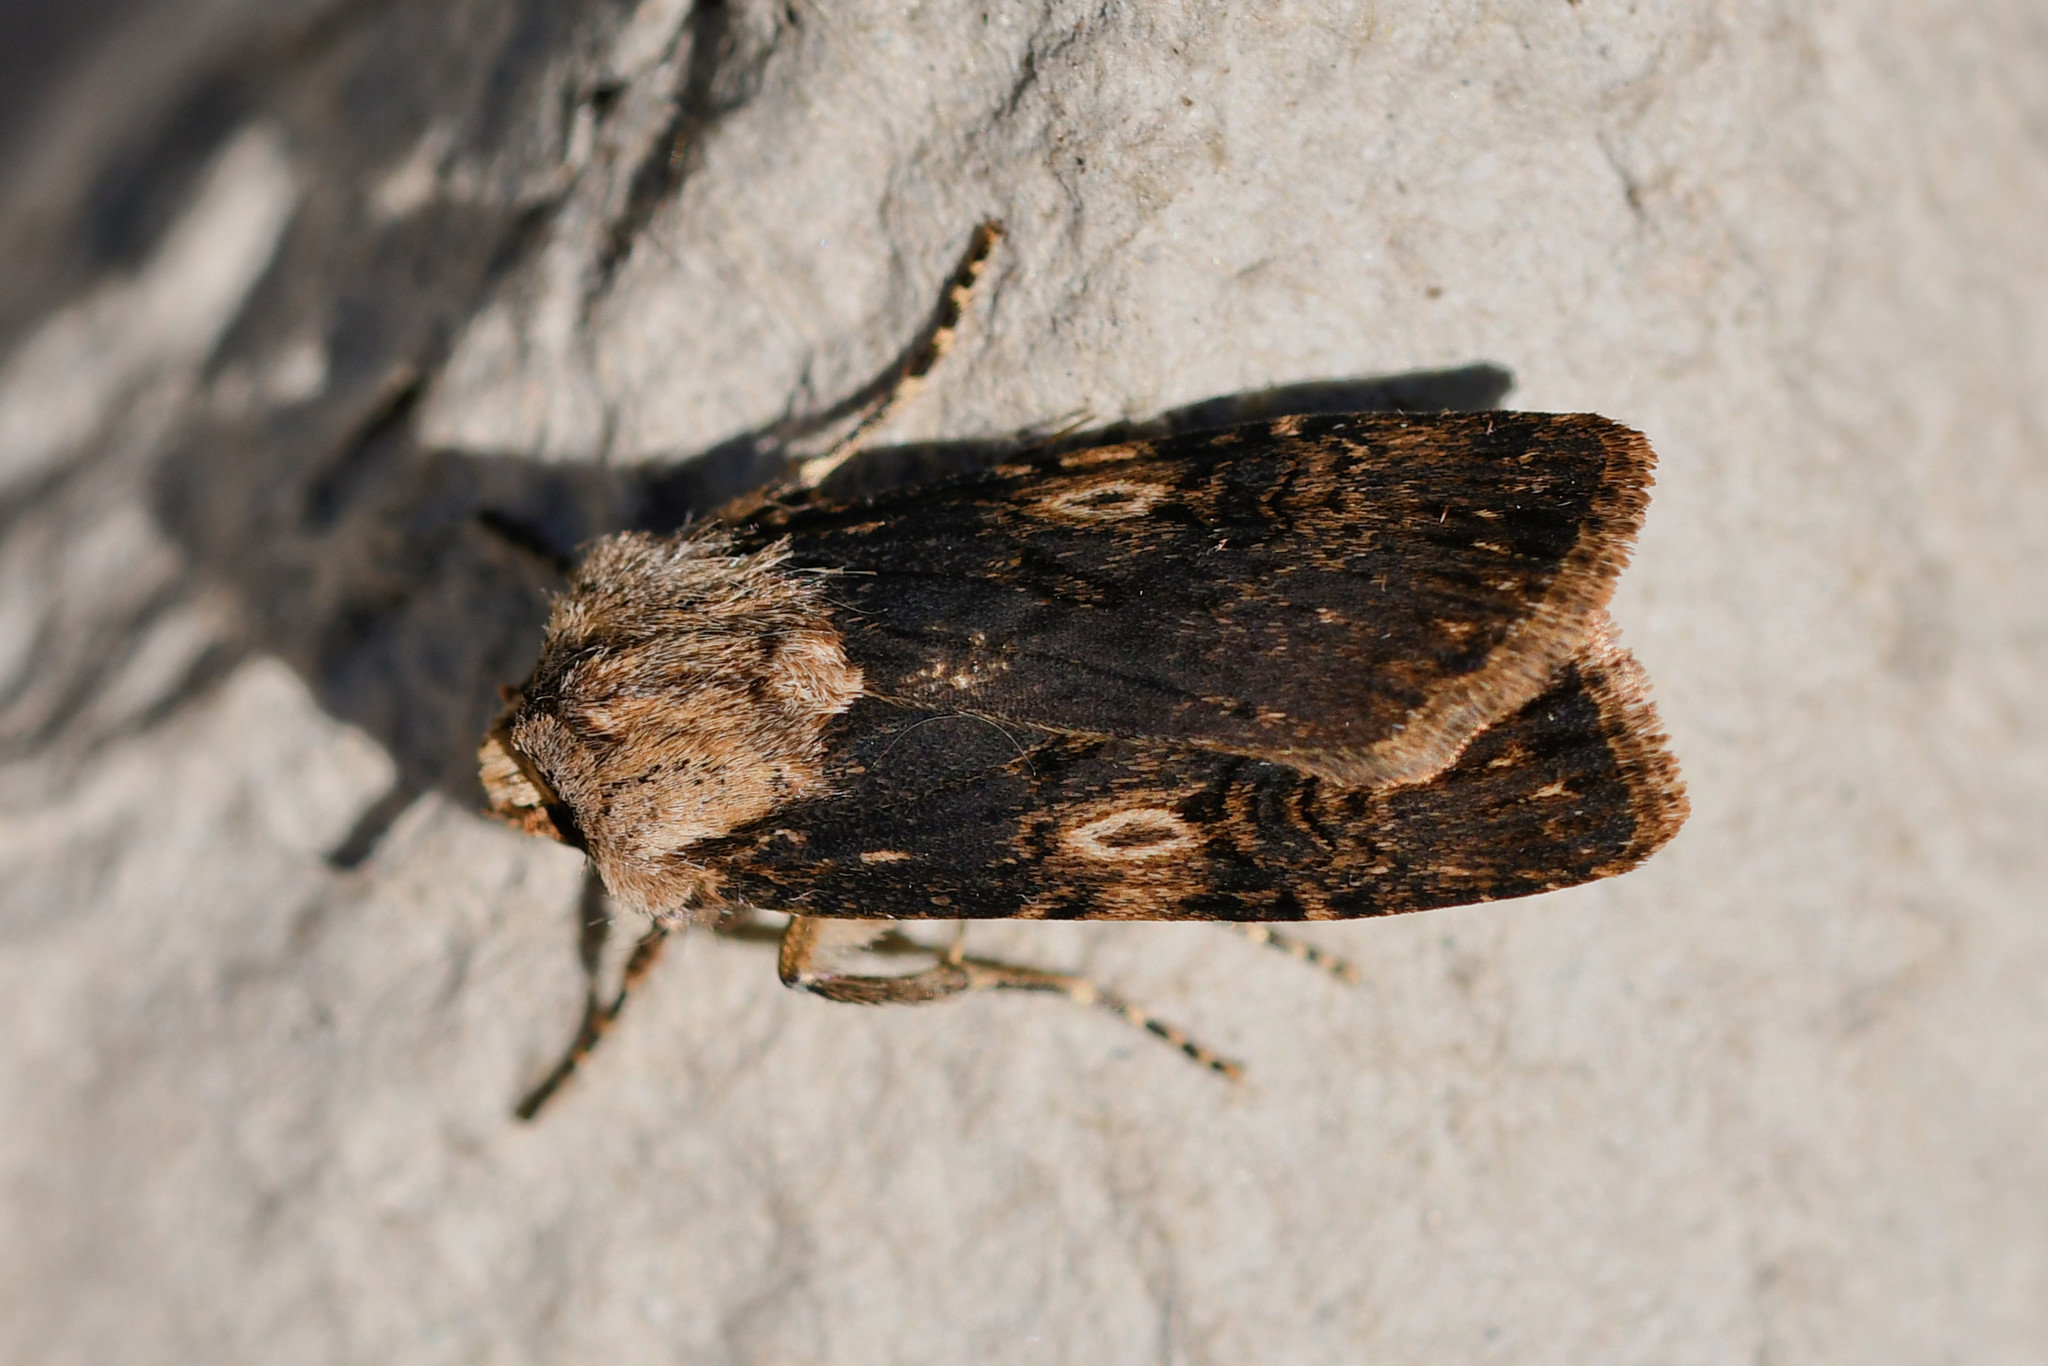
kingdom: Animalia
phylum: Arthropoda
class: Insecta
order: Lepidoptera
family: Noctuidae
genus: Agrotis
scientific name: Agrotis puta
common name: Shuttle-shaped dart
